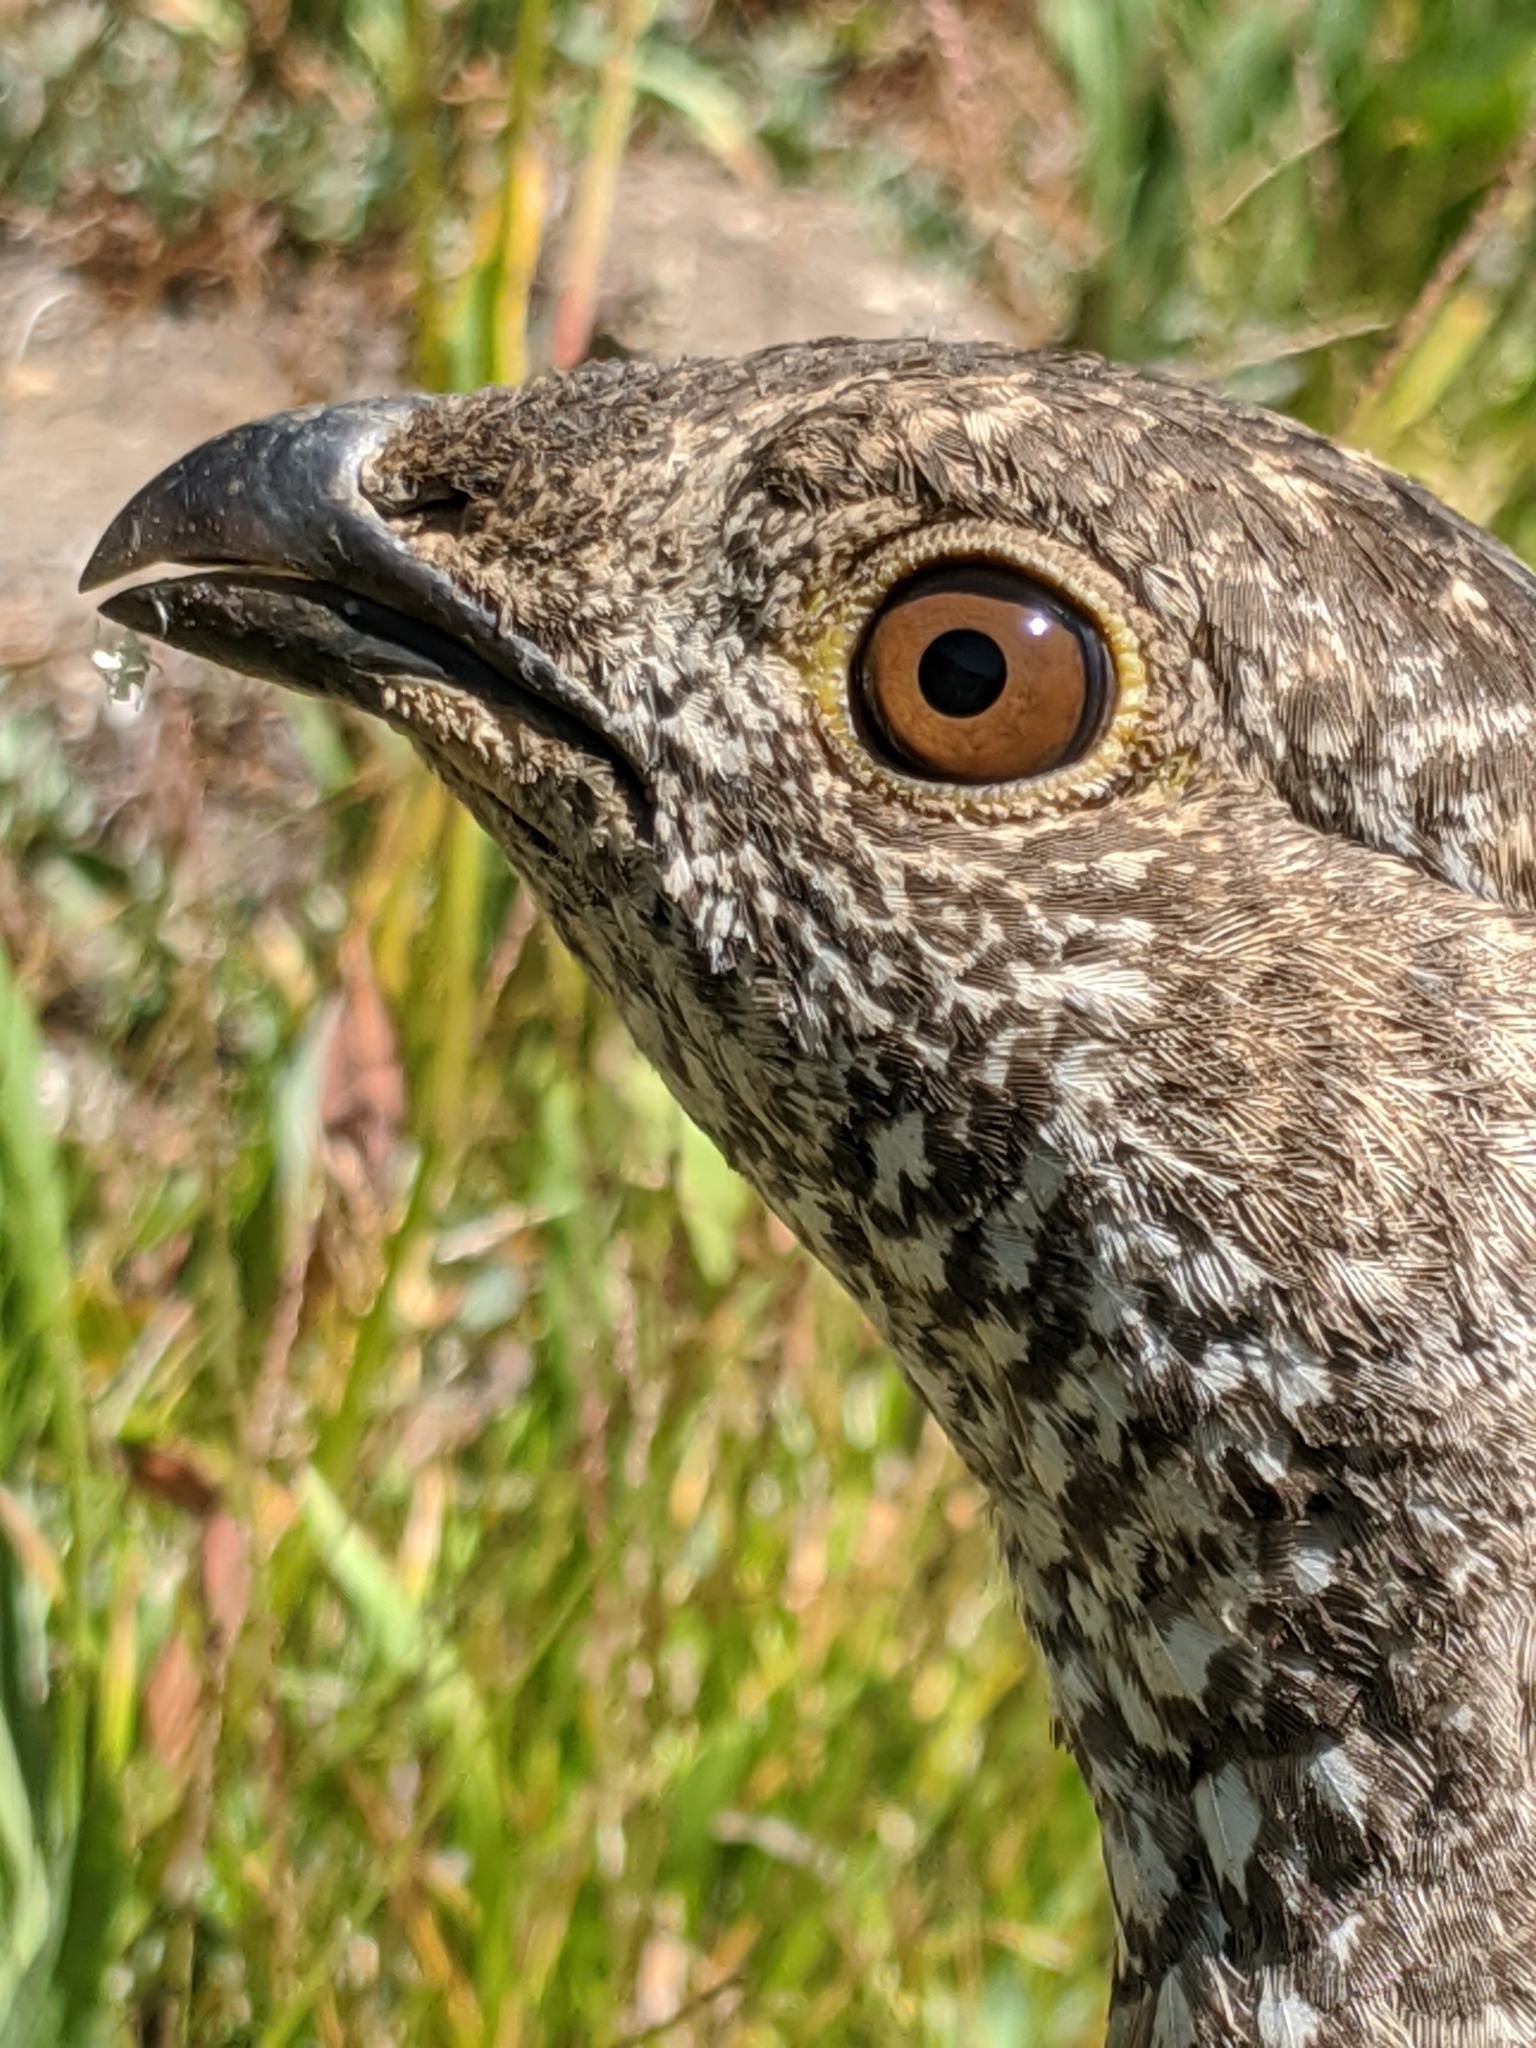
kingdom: Animalia
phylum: Chordata
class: Aves
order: Galliformes
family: Phasianidae
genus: Dendragapus
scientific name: Dendragapus fuliginosus
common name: Sooty grouse
